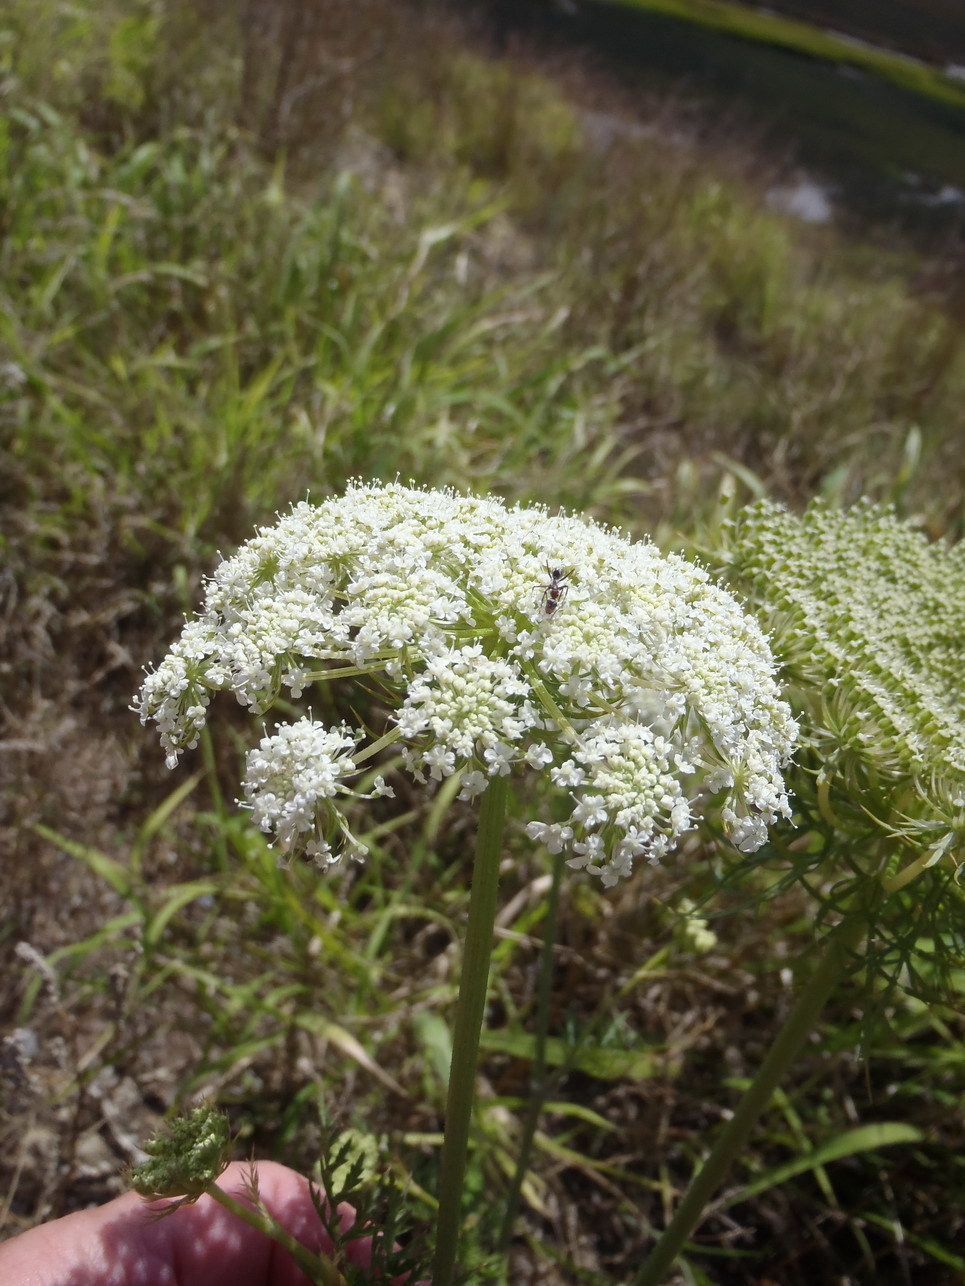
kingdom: Plantae
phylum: Tracheophyta
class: Magnoliopsida
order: Apiales
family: Apiaceae
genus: Daucus
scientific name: Daucus carota
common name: Wild carrot
